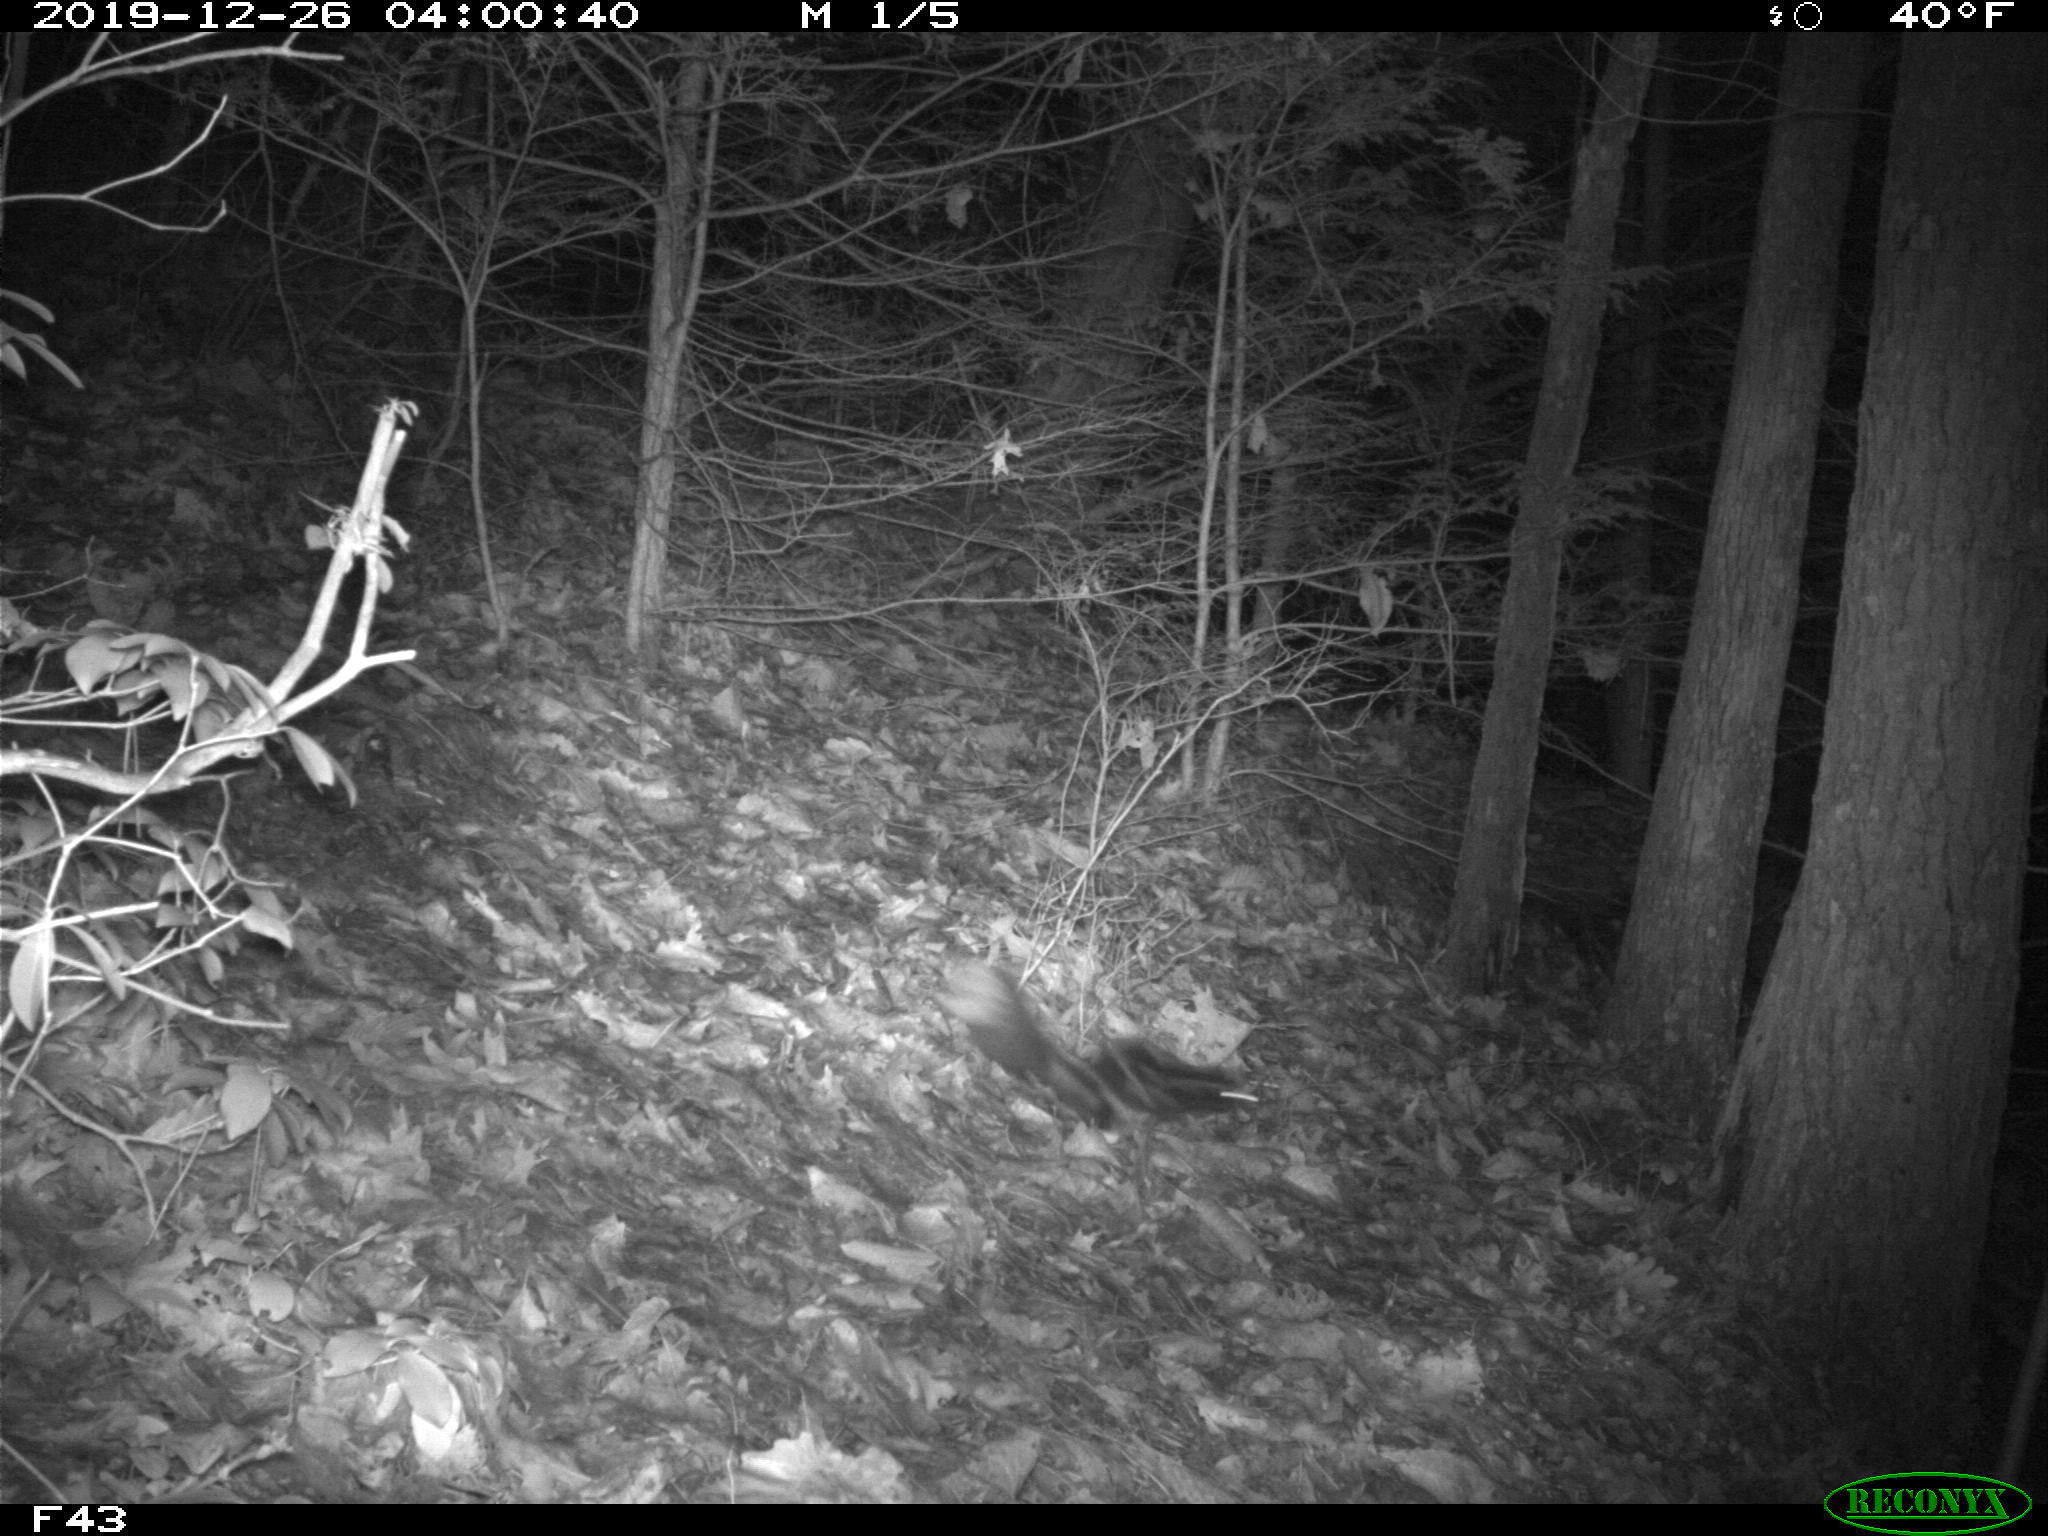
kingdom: Animalia
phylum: Chordata
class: Mammalia
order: Carnivora
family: Mephitidae
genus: Spilogale
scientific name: Spilogale putorius
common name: Eastern spotted skunk
